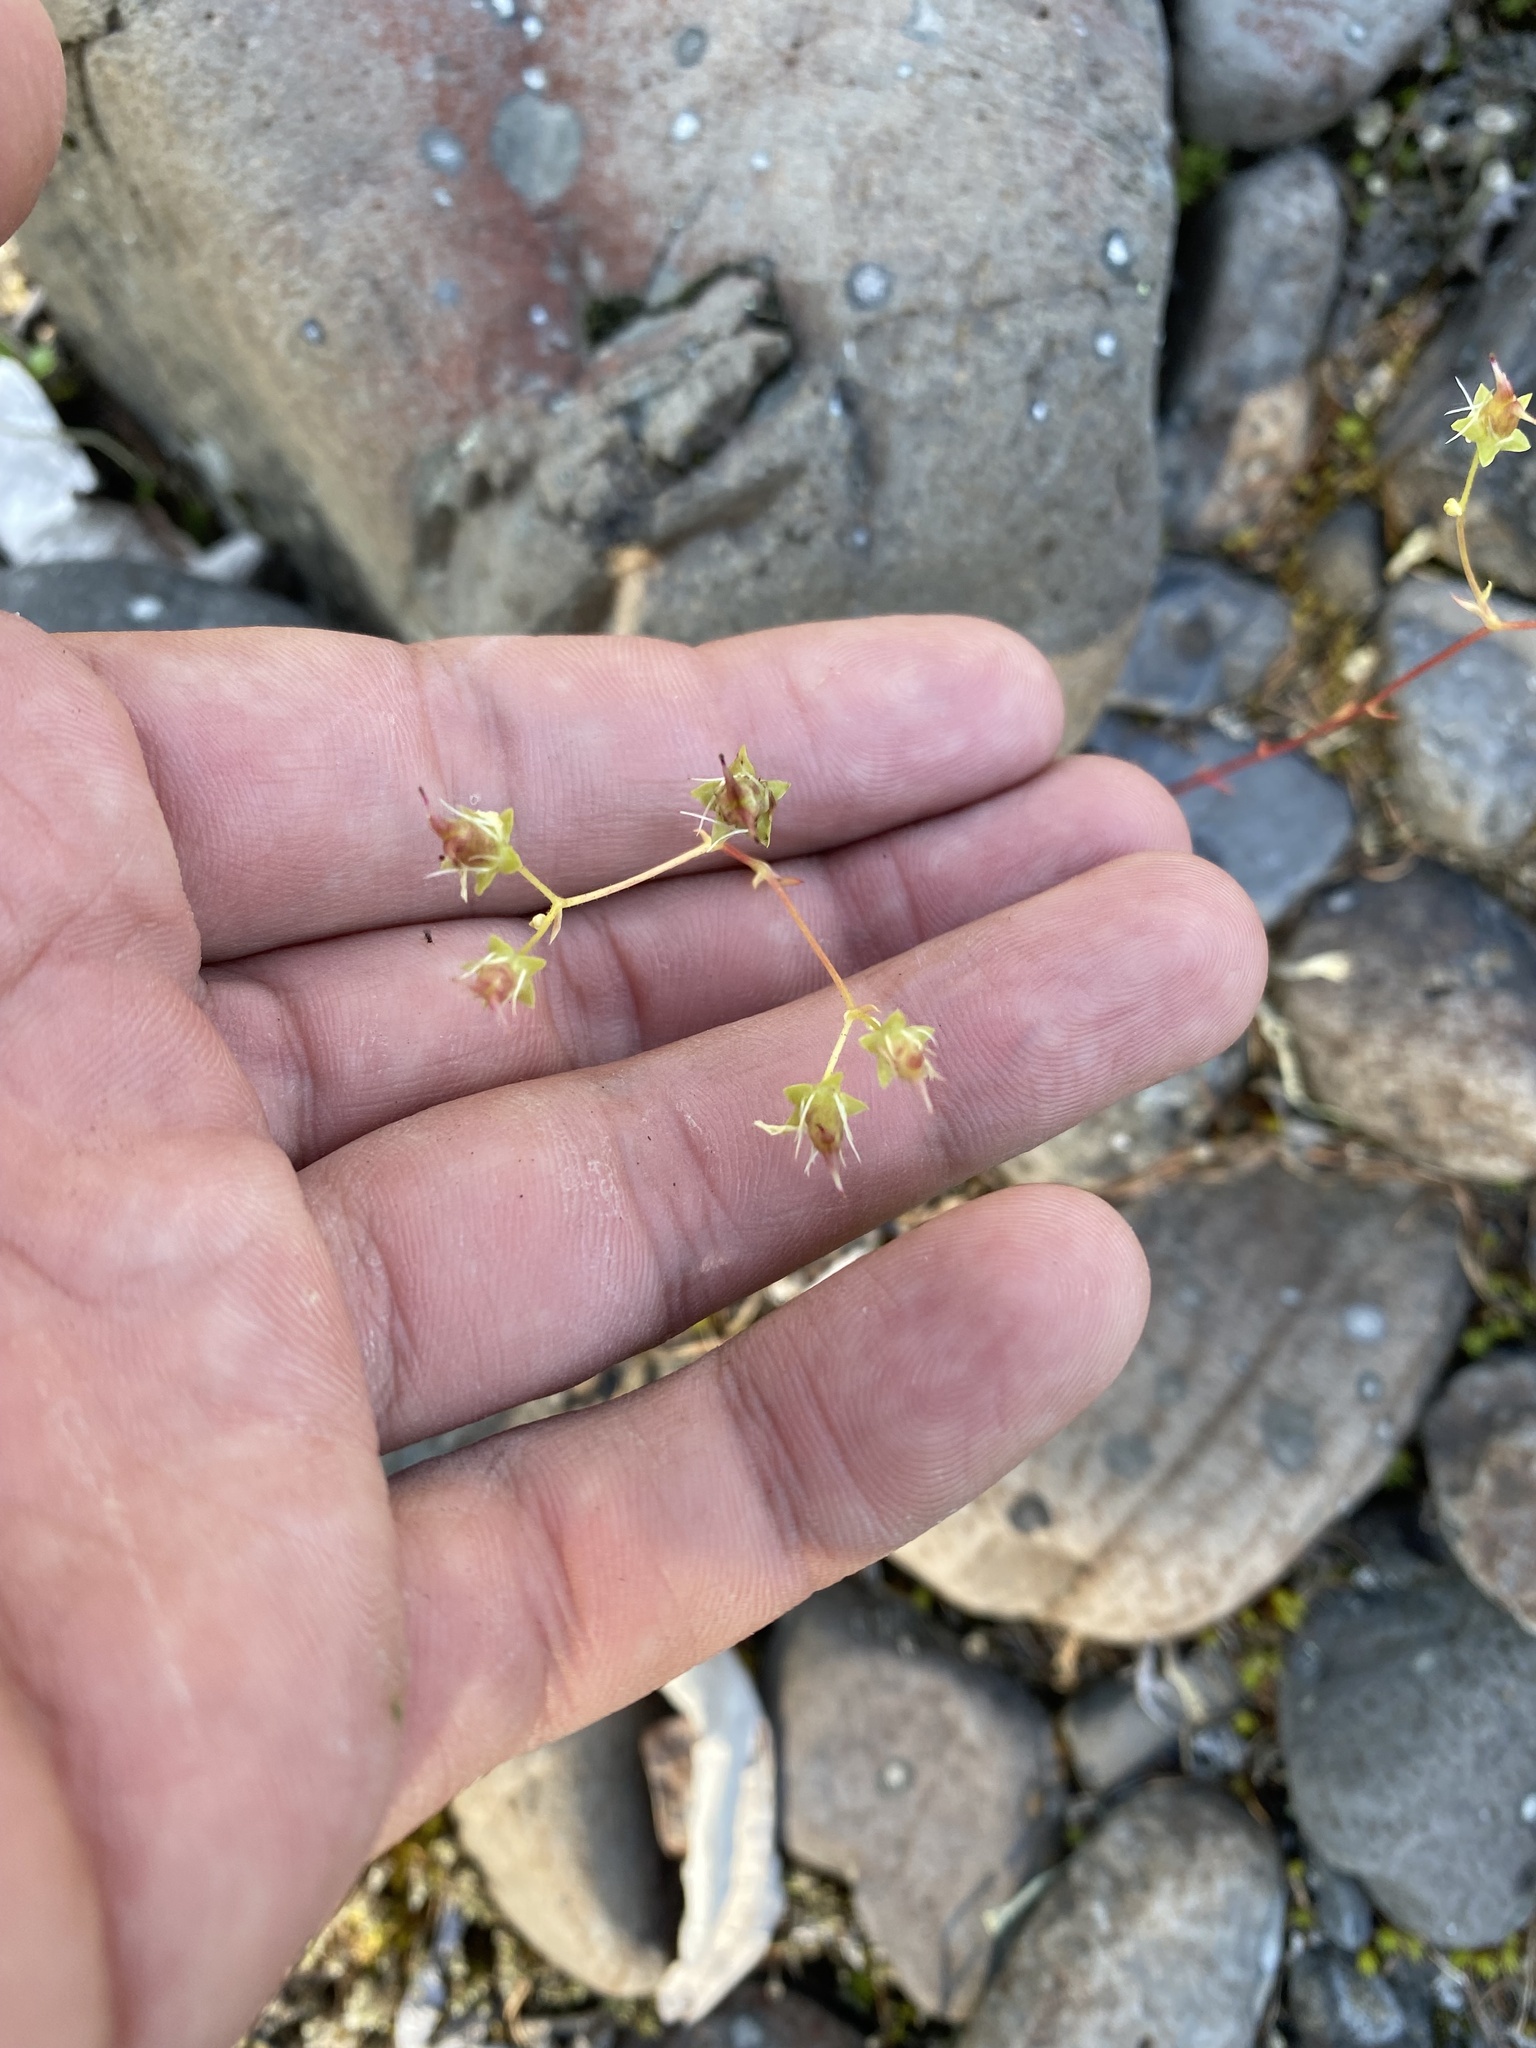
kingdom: Plantae
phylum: Tracheophyta
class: Magnoliopsida
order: Saxifragales
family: Saxifragaceae
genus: Saxifraga
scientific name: Saxifraga
